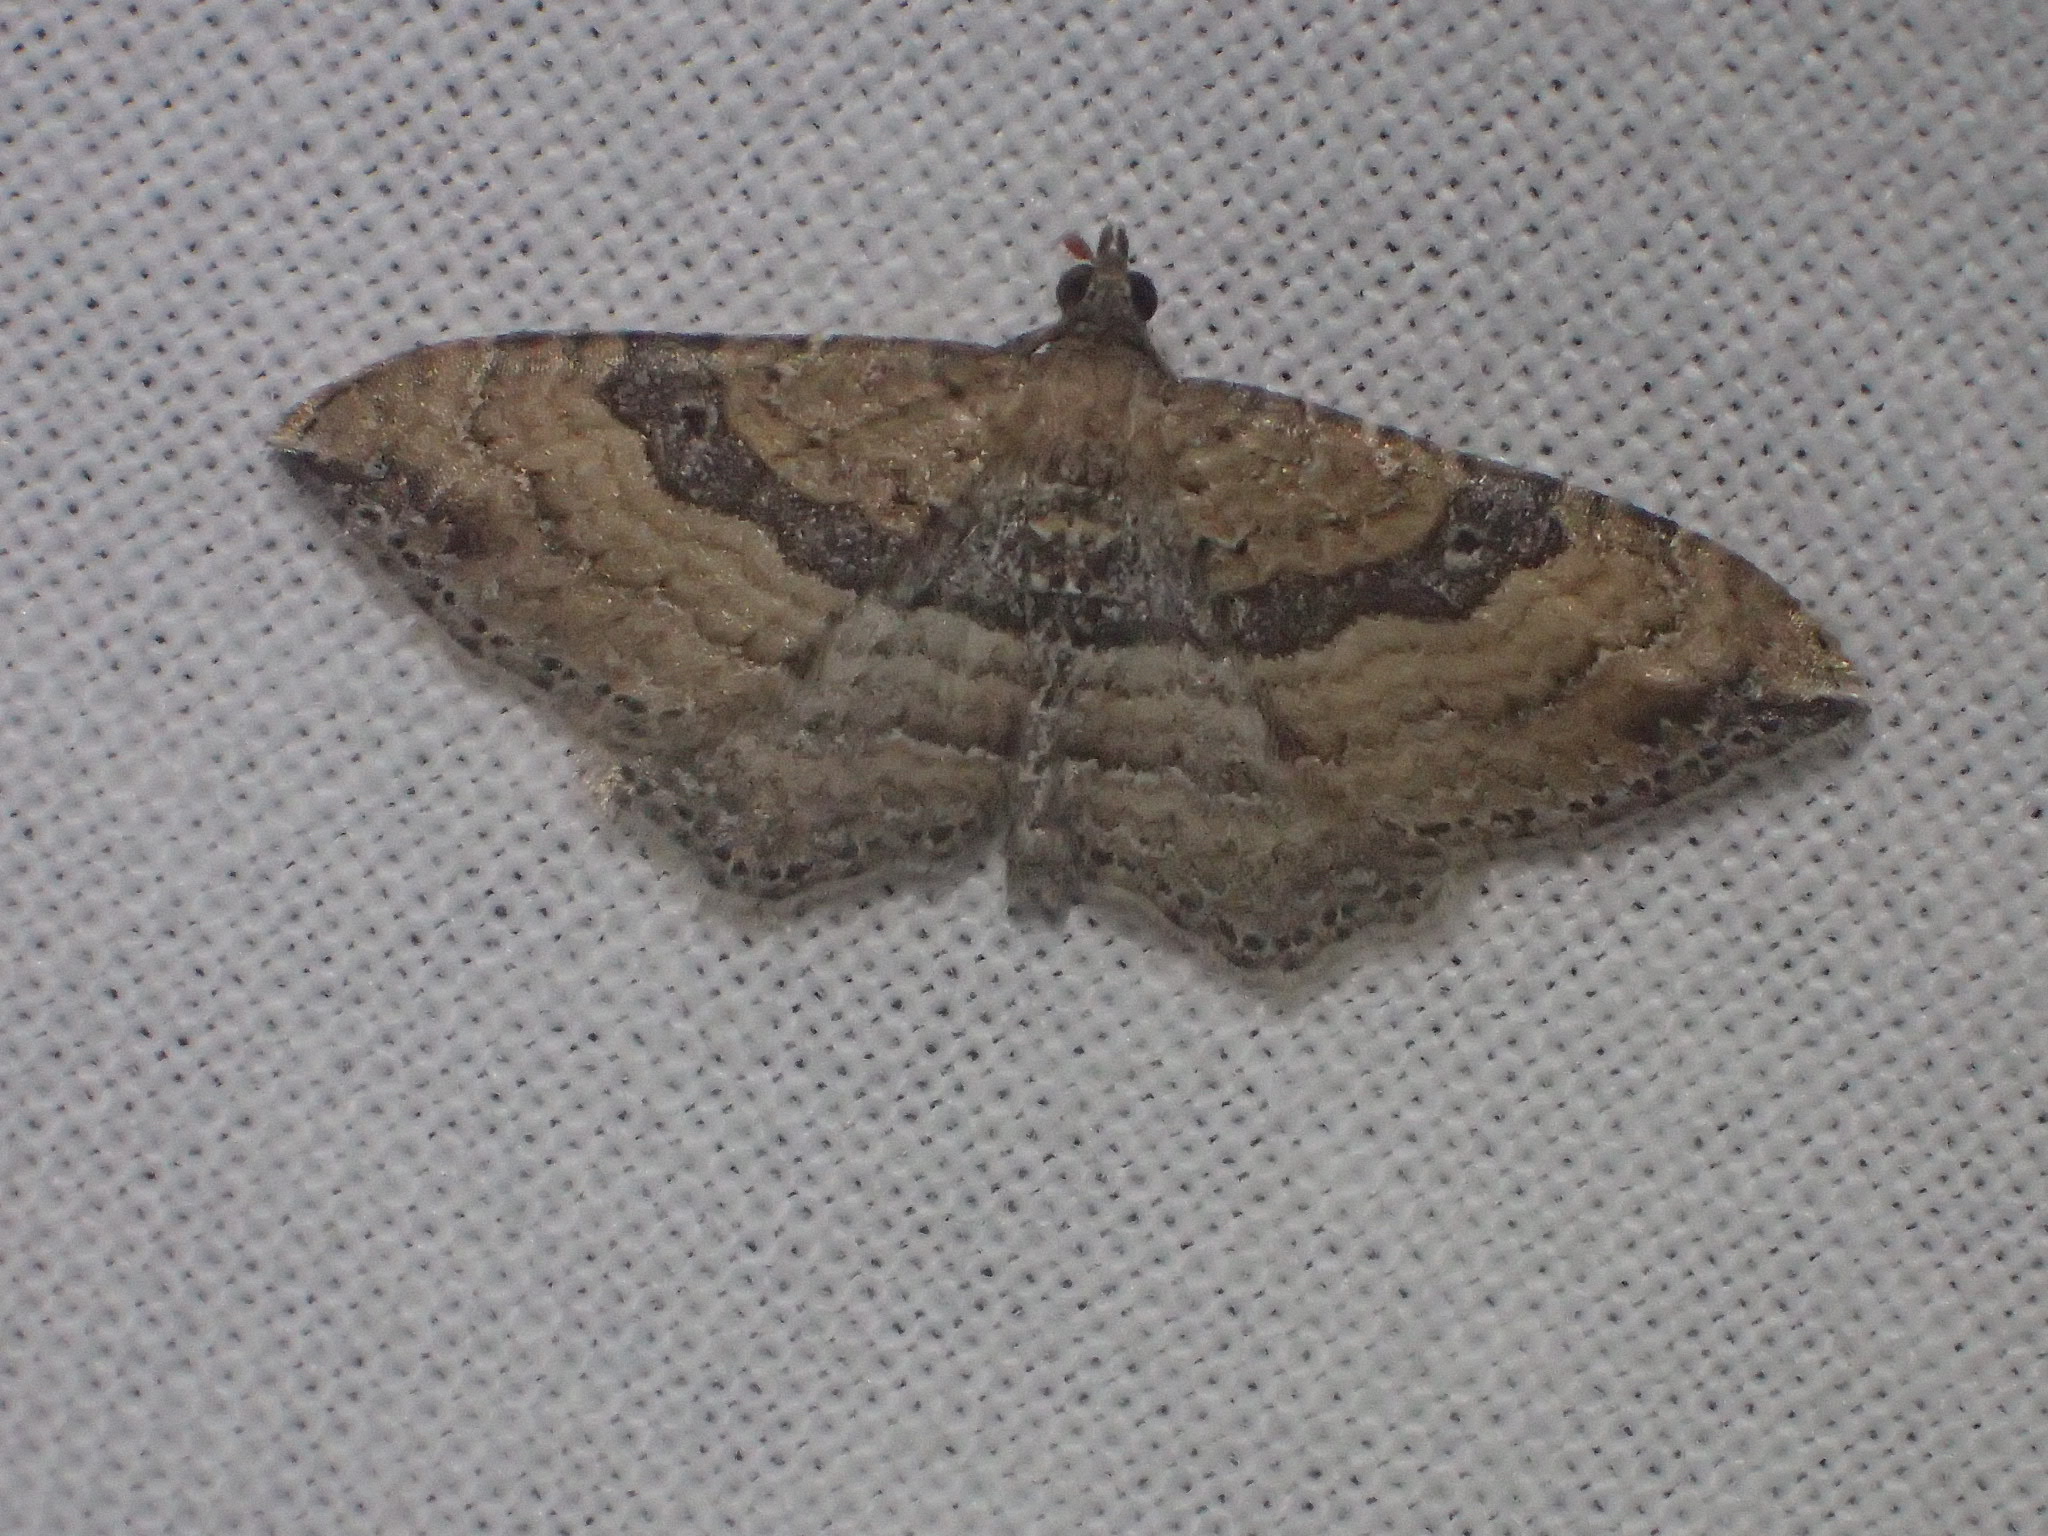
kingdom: Animalia
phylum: Arthropoda
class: Insecta
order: Lepidoptera
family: Geometridae
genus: Orthonama
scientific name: Orthonama obstipata
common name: The gem
